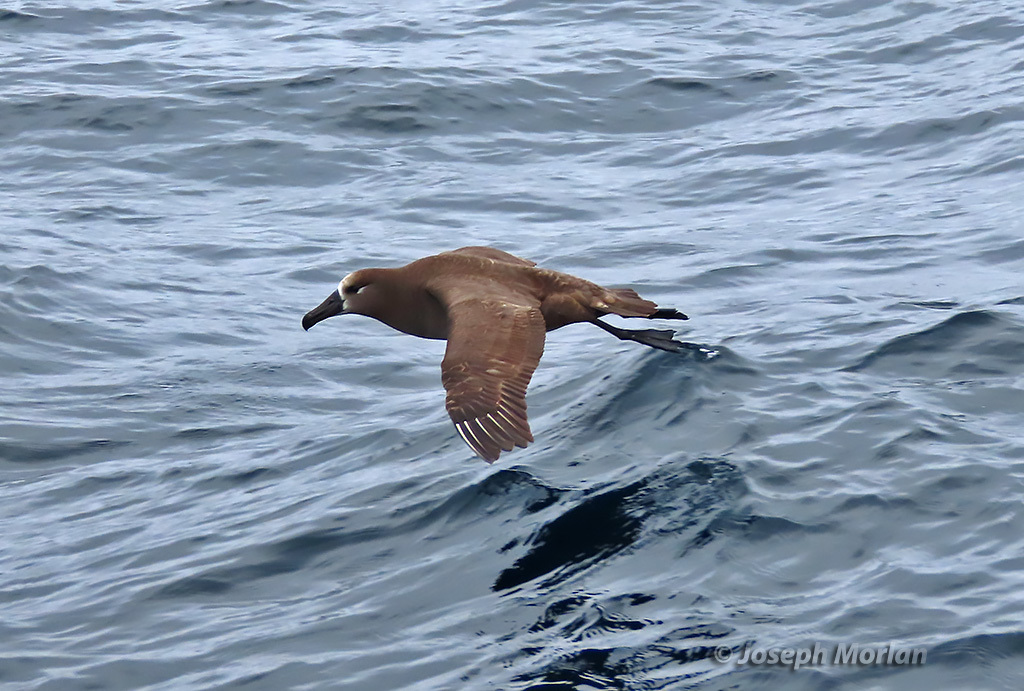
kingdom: Animalia
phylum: Chordata
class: Aves
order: Procellariiformes
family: Diomedeidae
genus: Phoebastria
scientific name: Phoebastria nigripes
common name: Black-footed albatross
